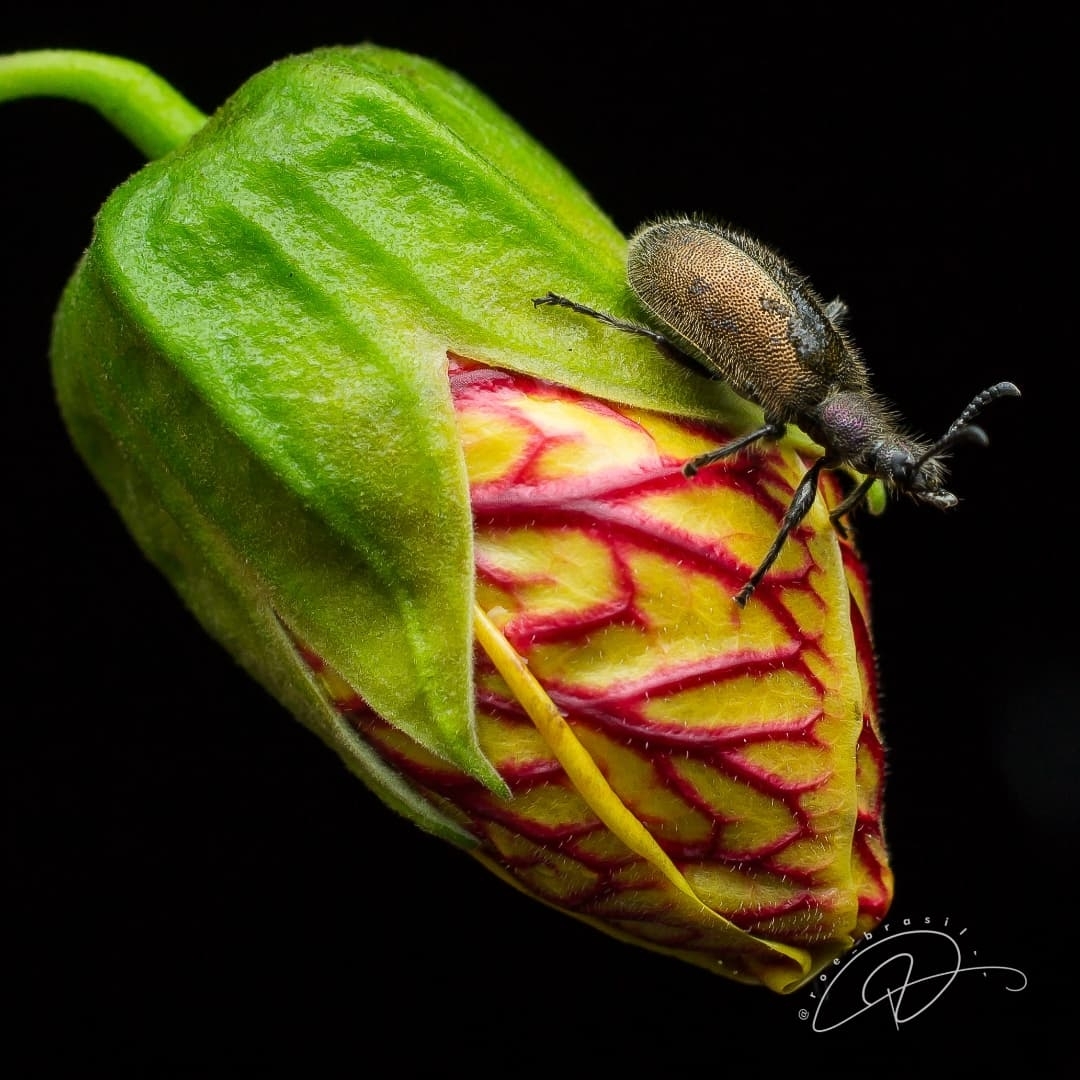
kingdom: Animalia
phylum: Arthropoda
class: Insecta
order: Coleoptera
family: Tenebrionidae
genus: Lagria
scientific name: Lagria villosa
